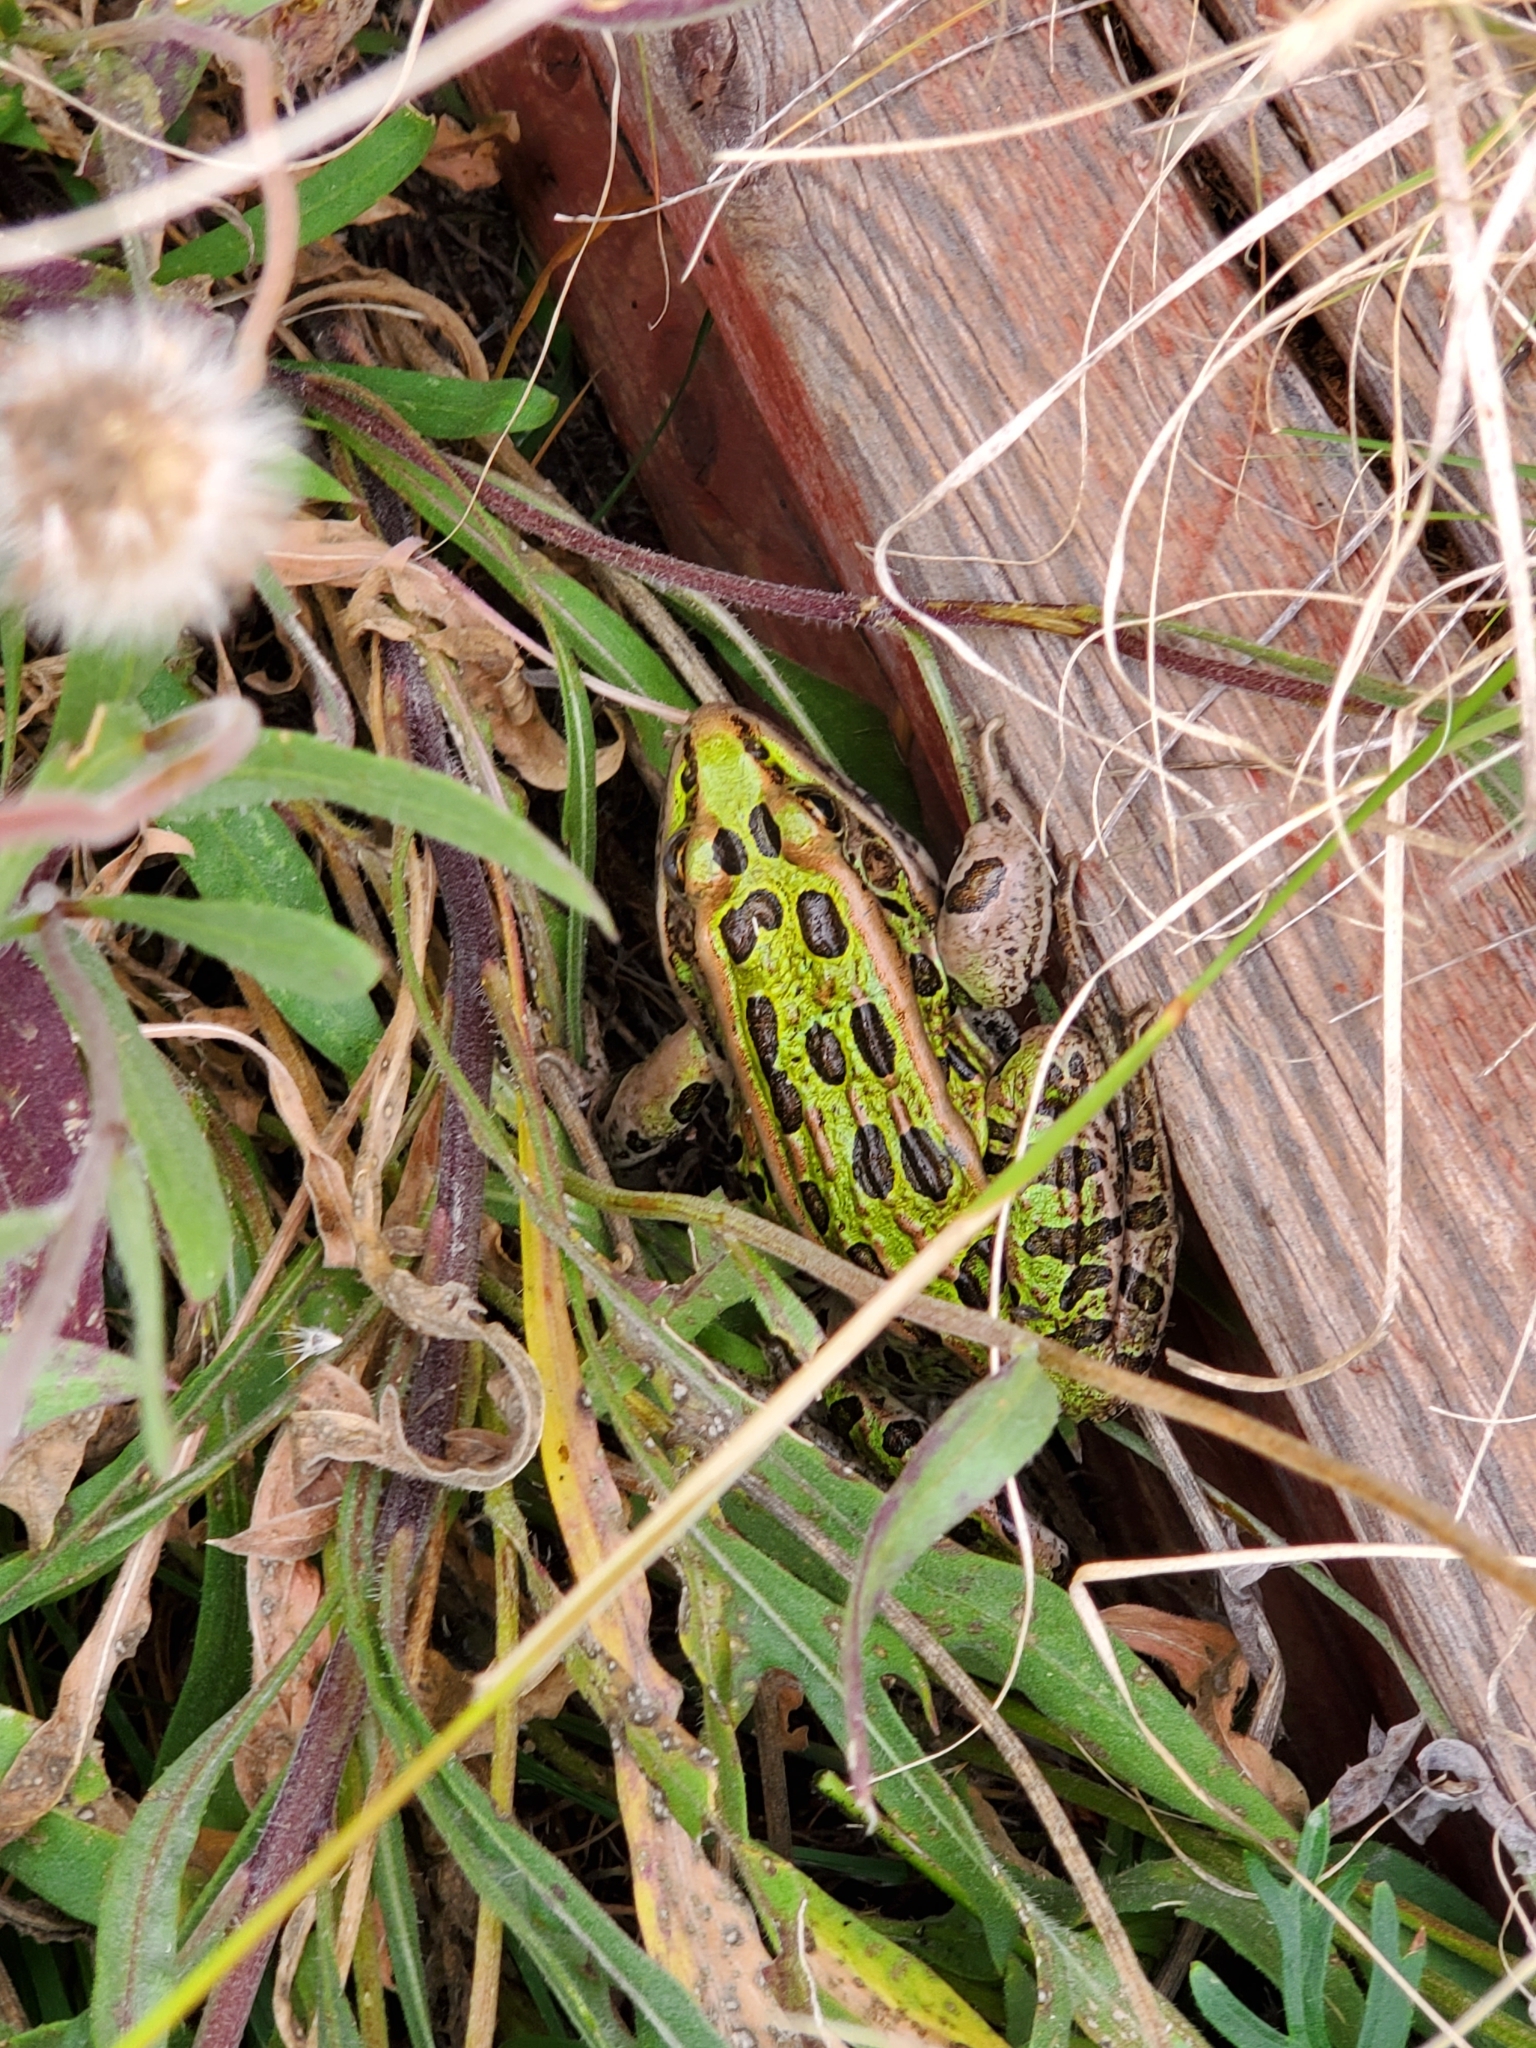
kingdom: Animalia
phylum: Chordata
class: Amphibia
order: Anura
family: Ranidae
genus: Lithobates
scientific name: Lithobates pipiens
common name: Northern leopard frog
